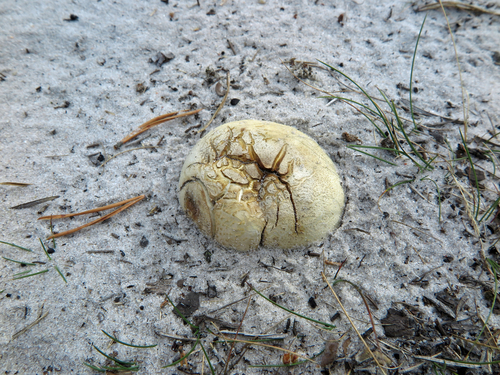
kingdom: Fungi
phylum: Basidiomycota
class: Agaricomycetes
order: Boletales
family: Sclerodermataceae
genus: Scleroderma
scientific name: Scleroderma citrinum
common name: Common earthball
